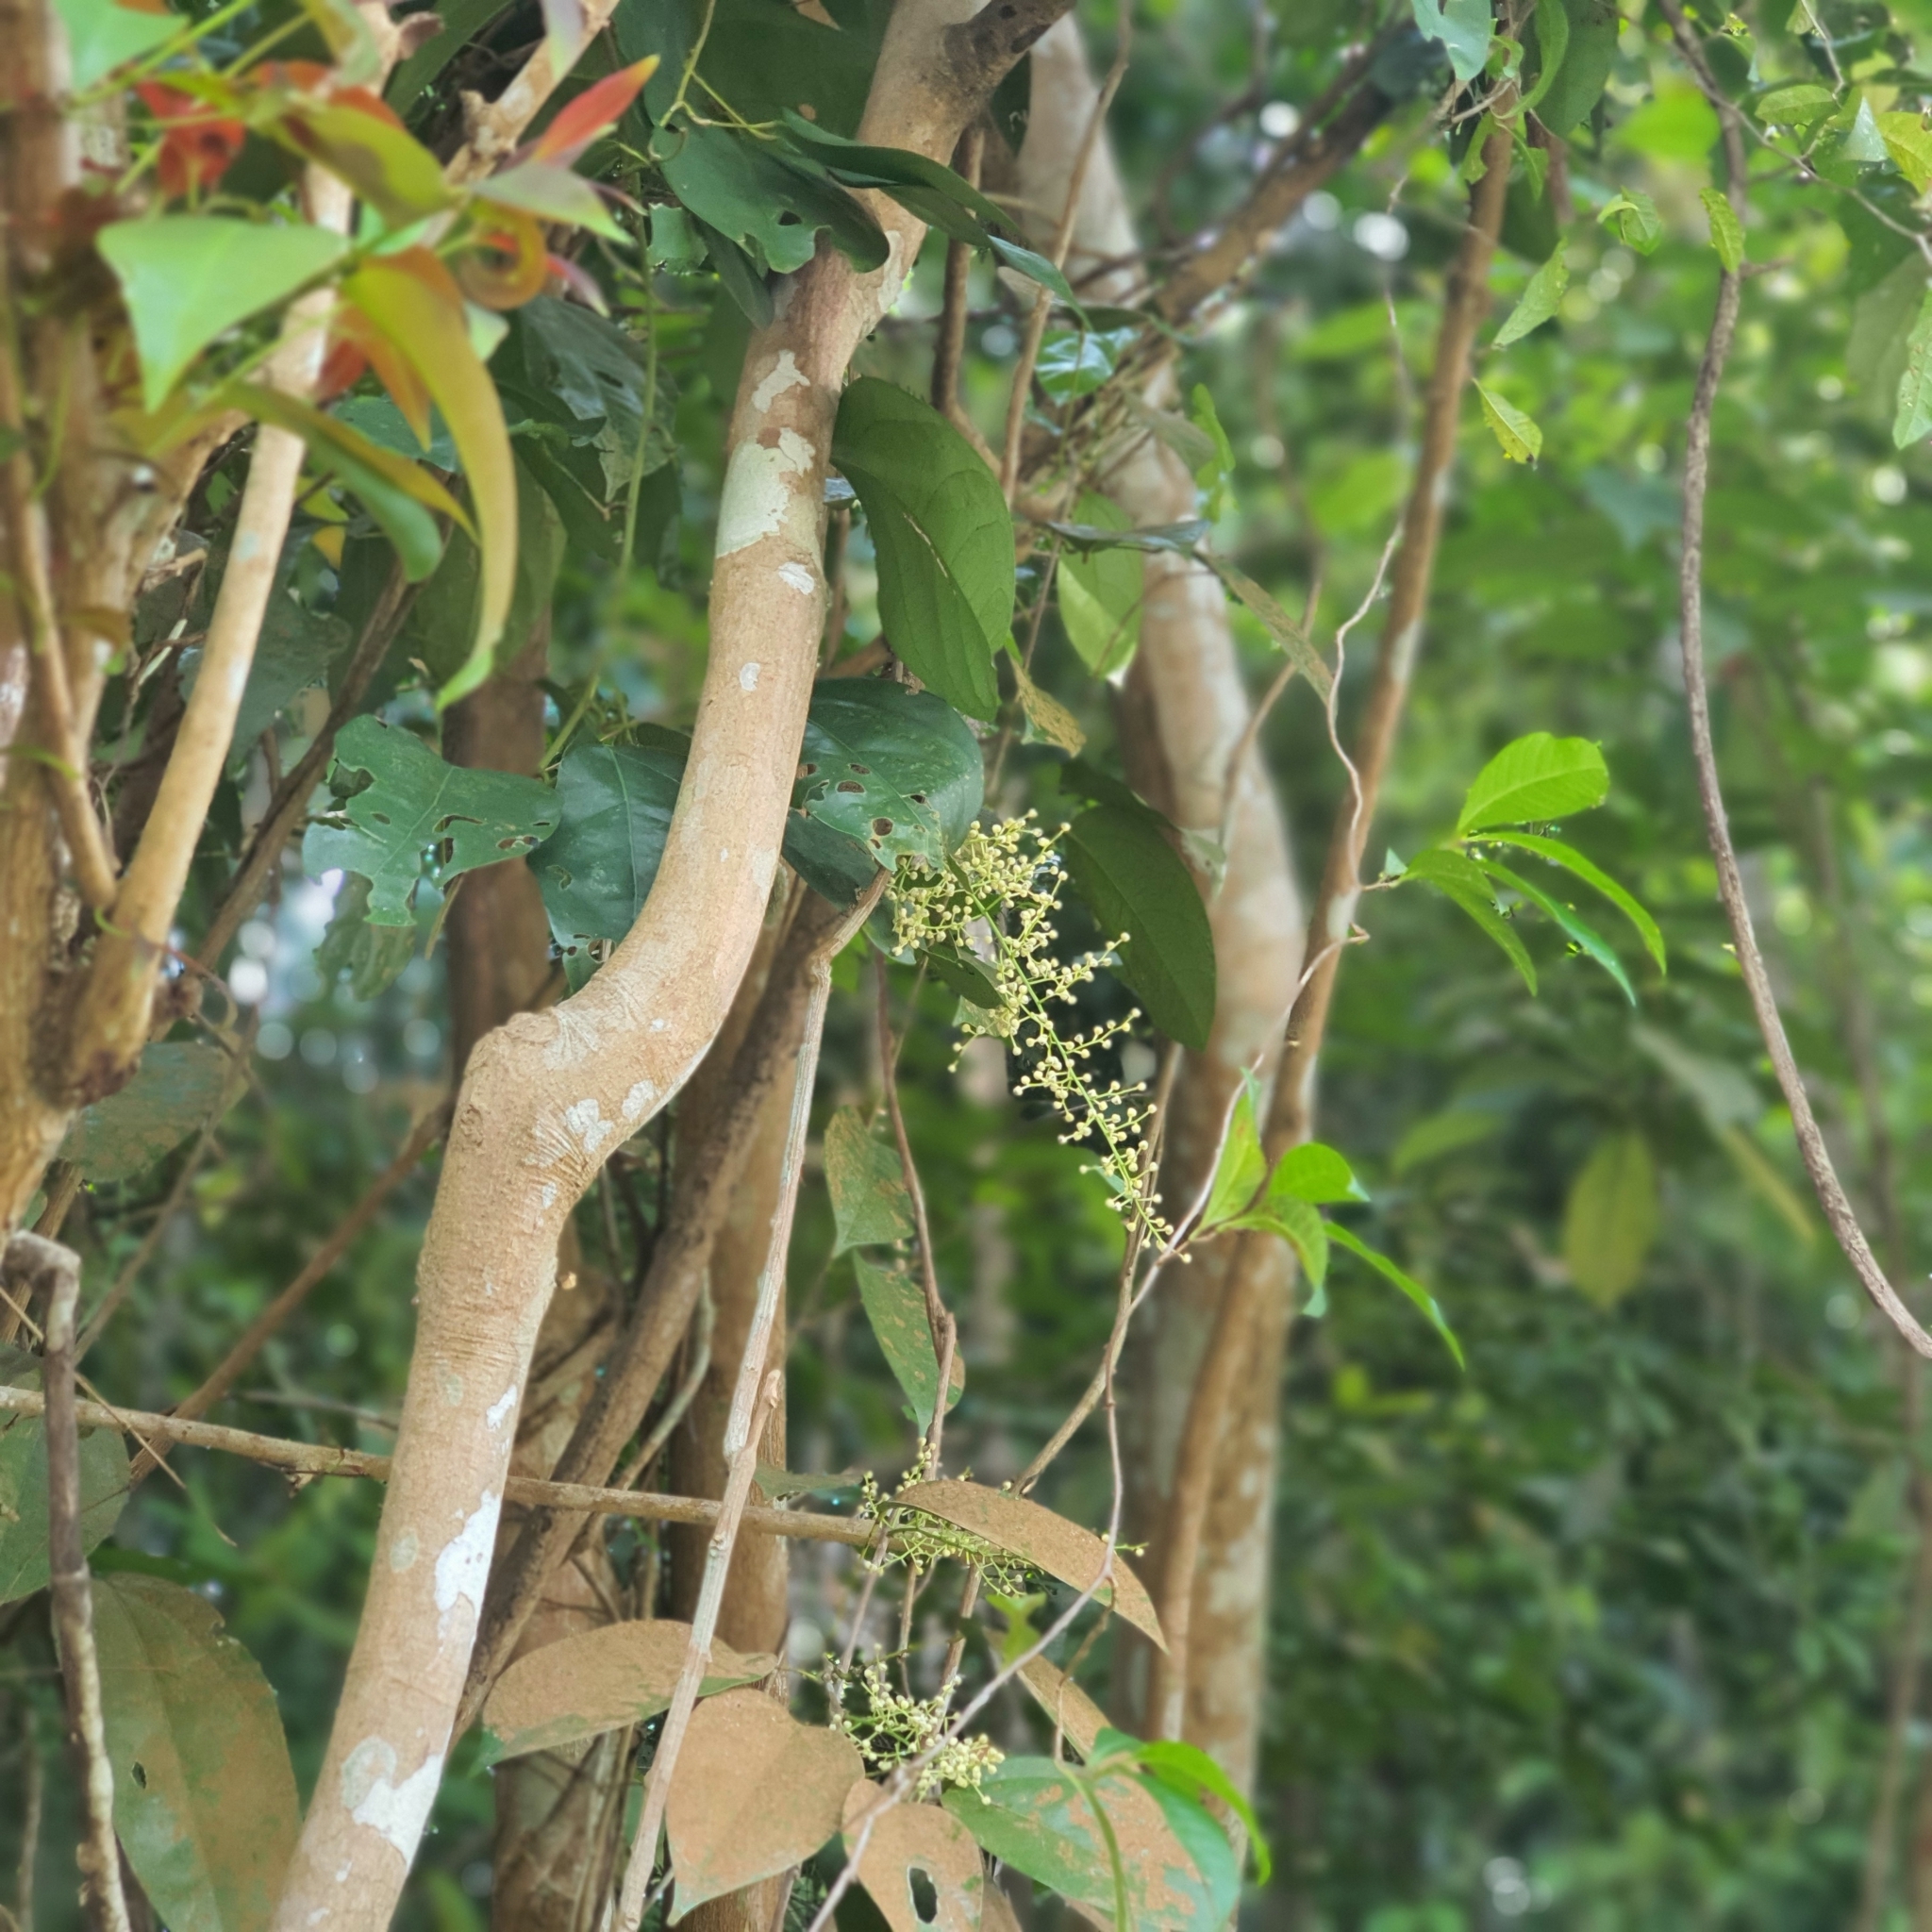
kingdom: Plantae
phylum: Tracheophyta
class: Magnoliopsida
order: Ranunculales
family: Menispermaceae
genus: Fibraurea
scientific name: Fibraurea tinctoria
